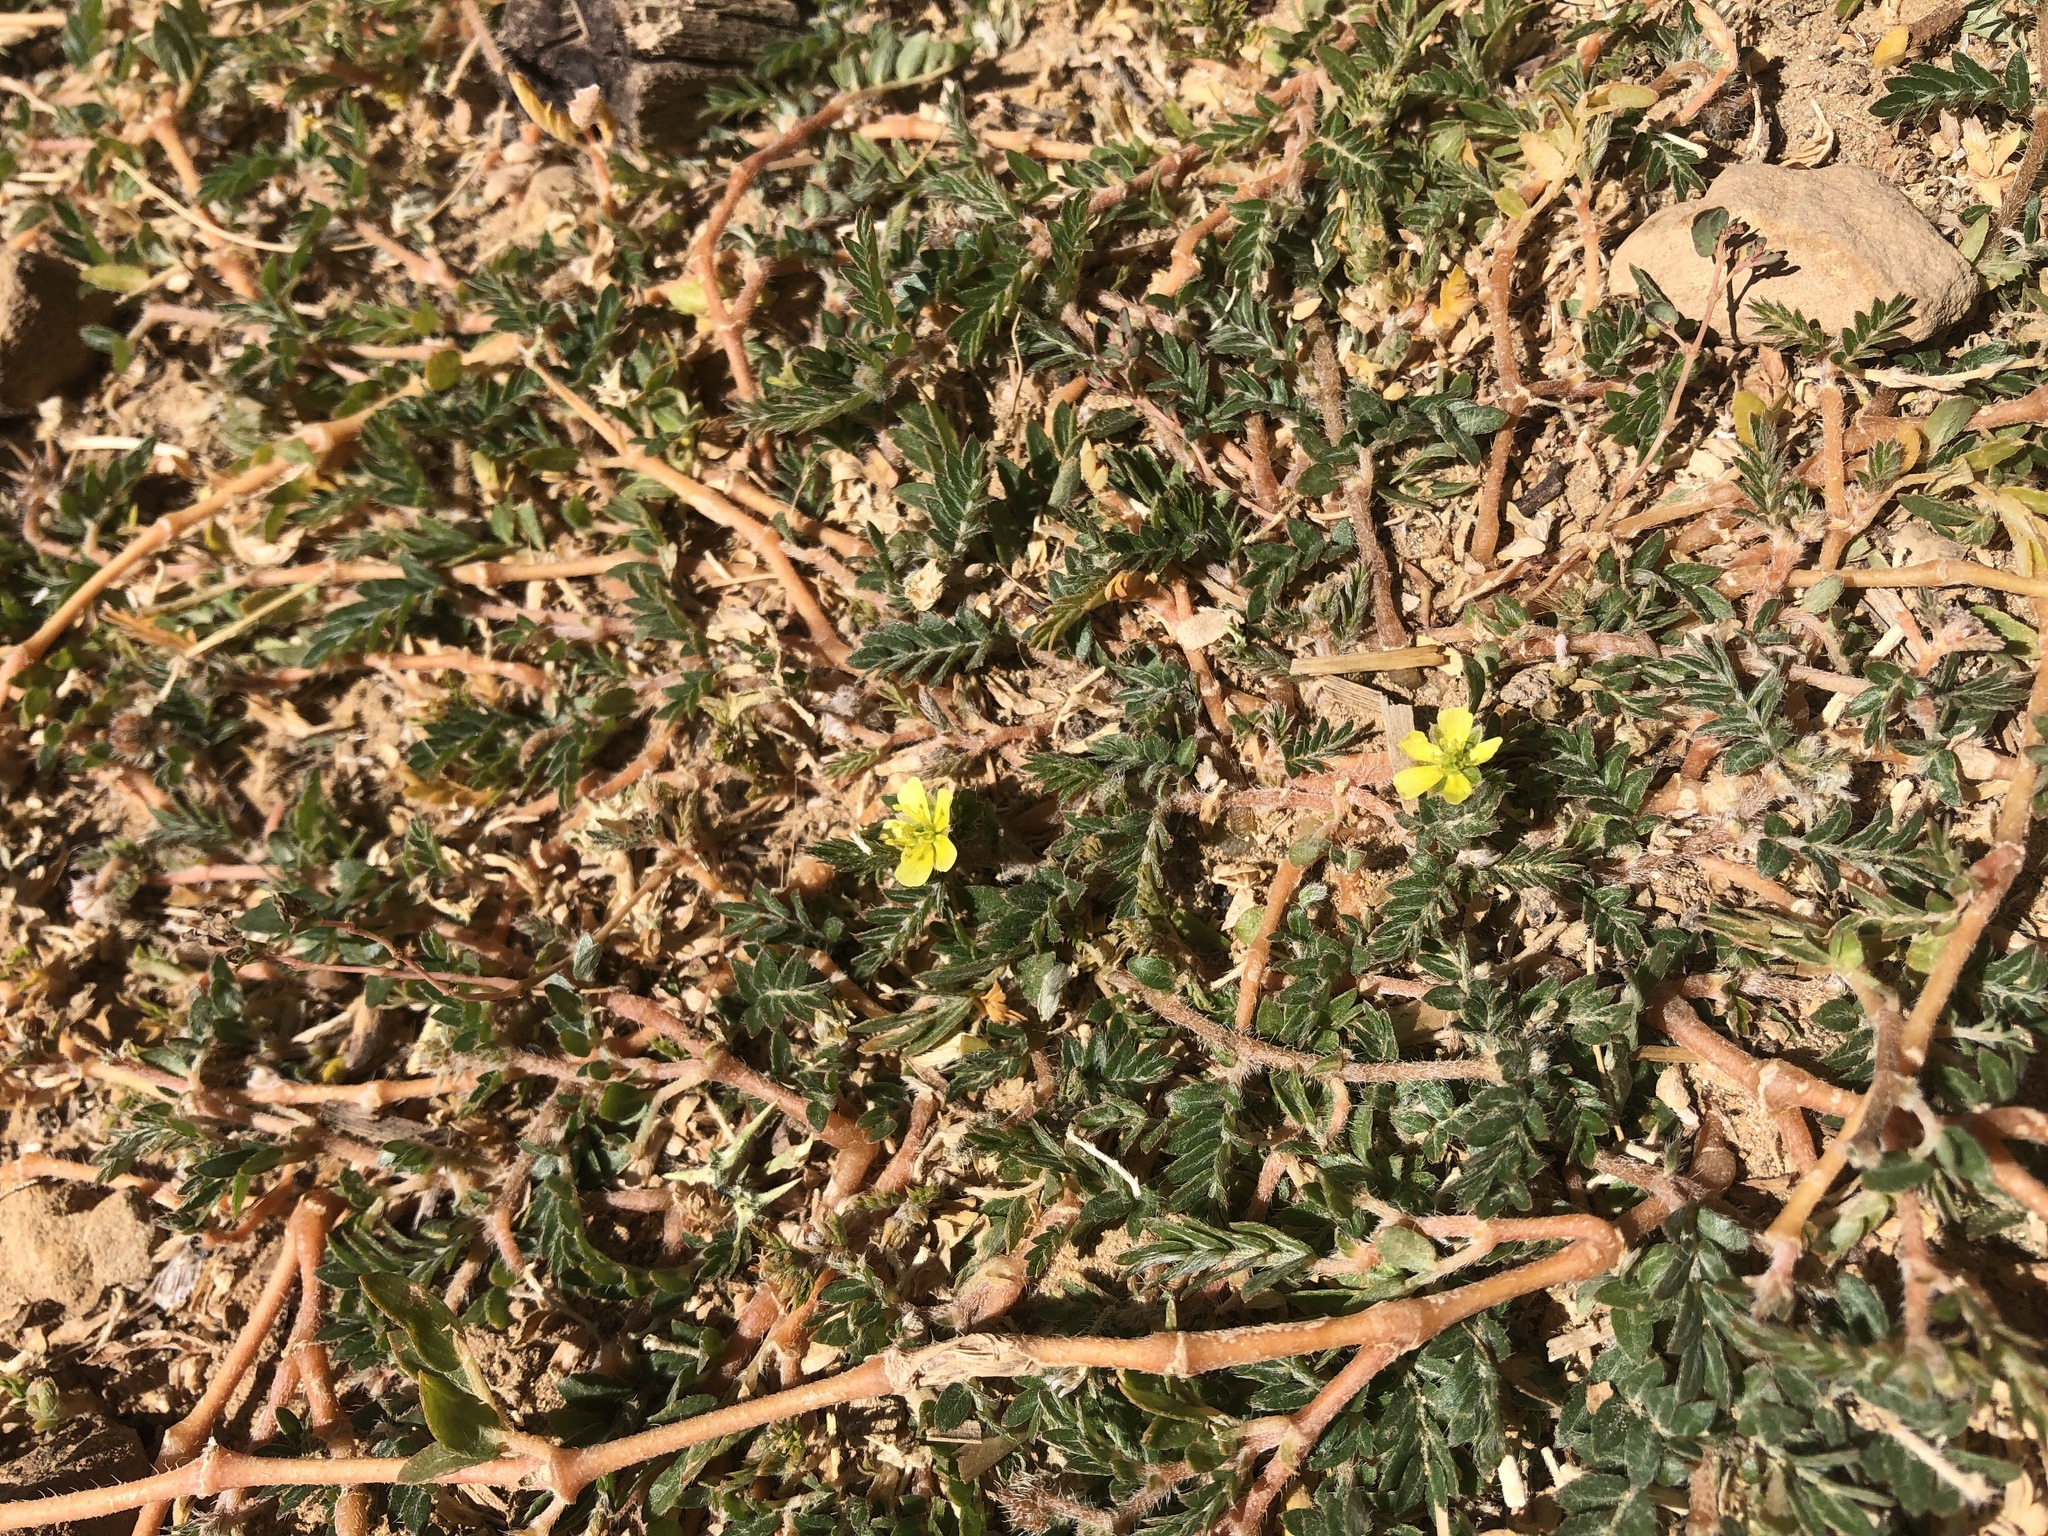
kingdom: Plantae
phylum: Tracheophyta
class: Magnoliopsida
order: Zygophyllales
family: Zygophyllaceae
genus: Tribulus
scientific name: Tribulus terrestris
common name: Puncturevine
